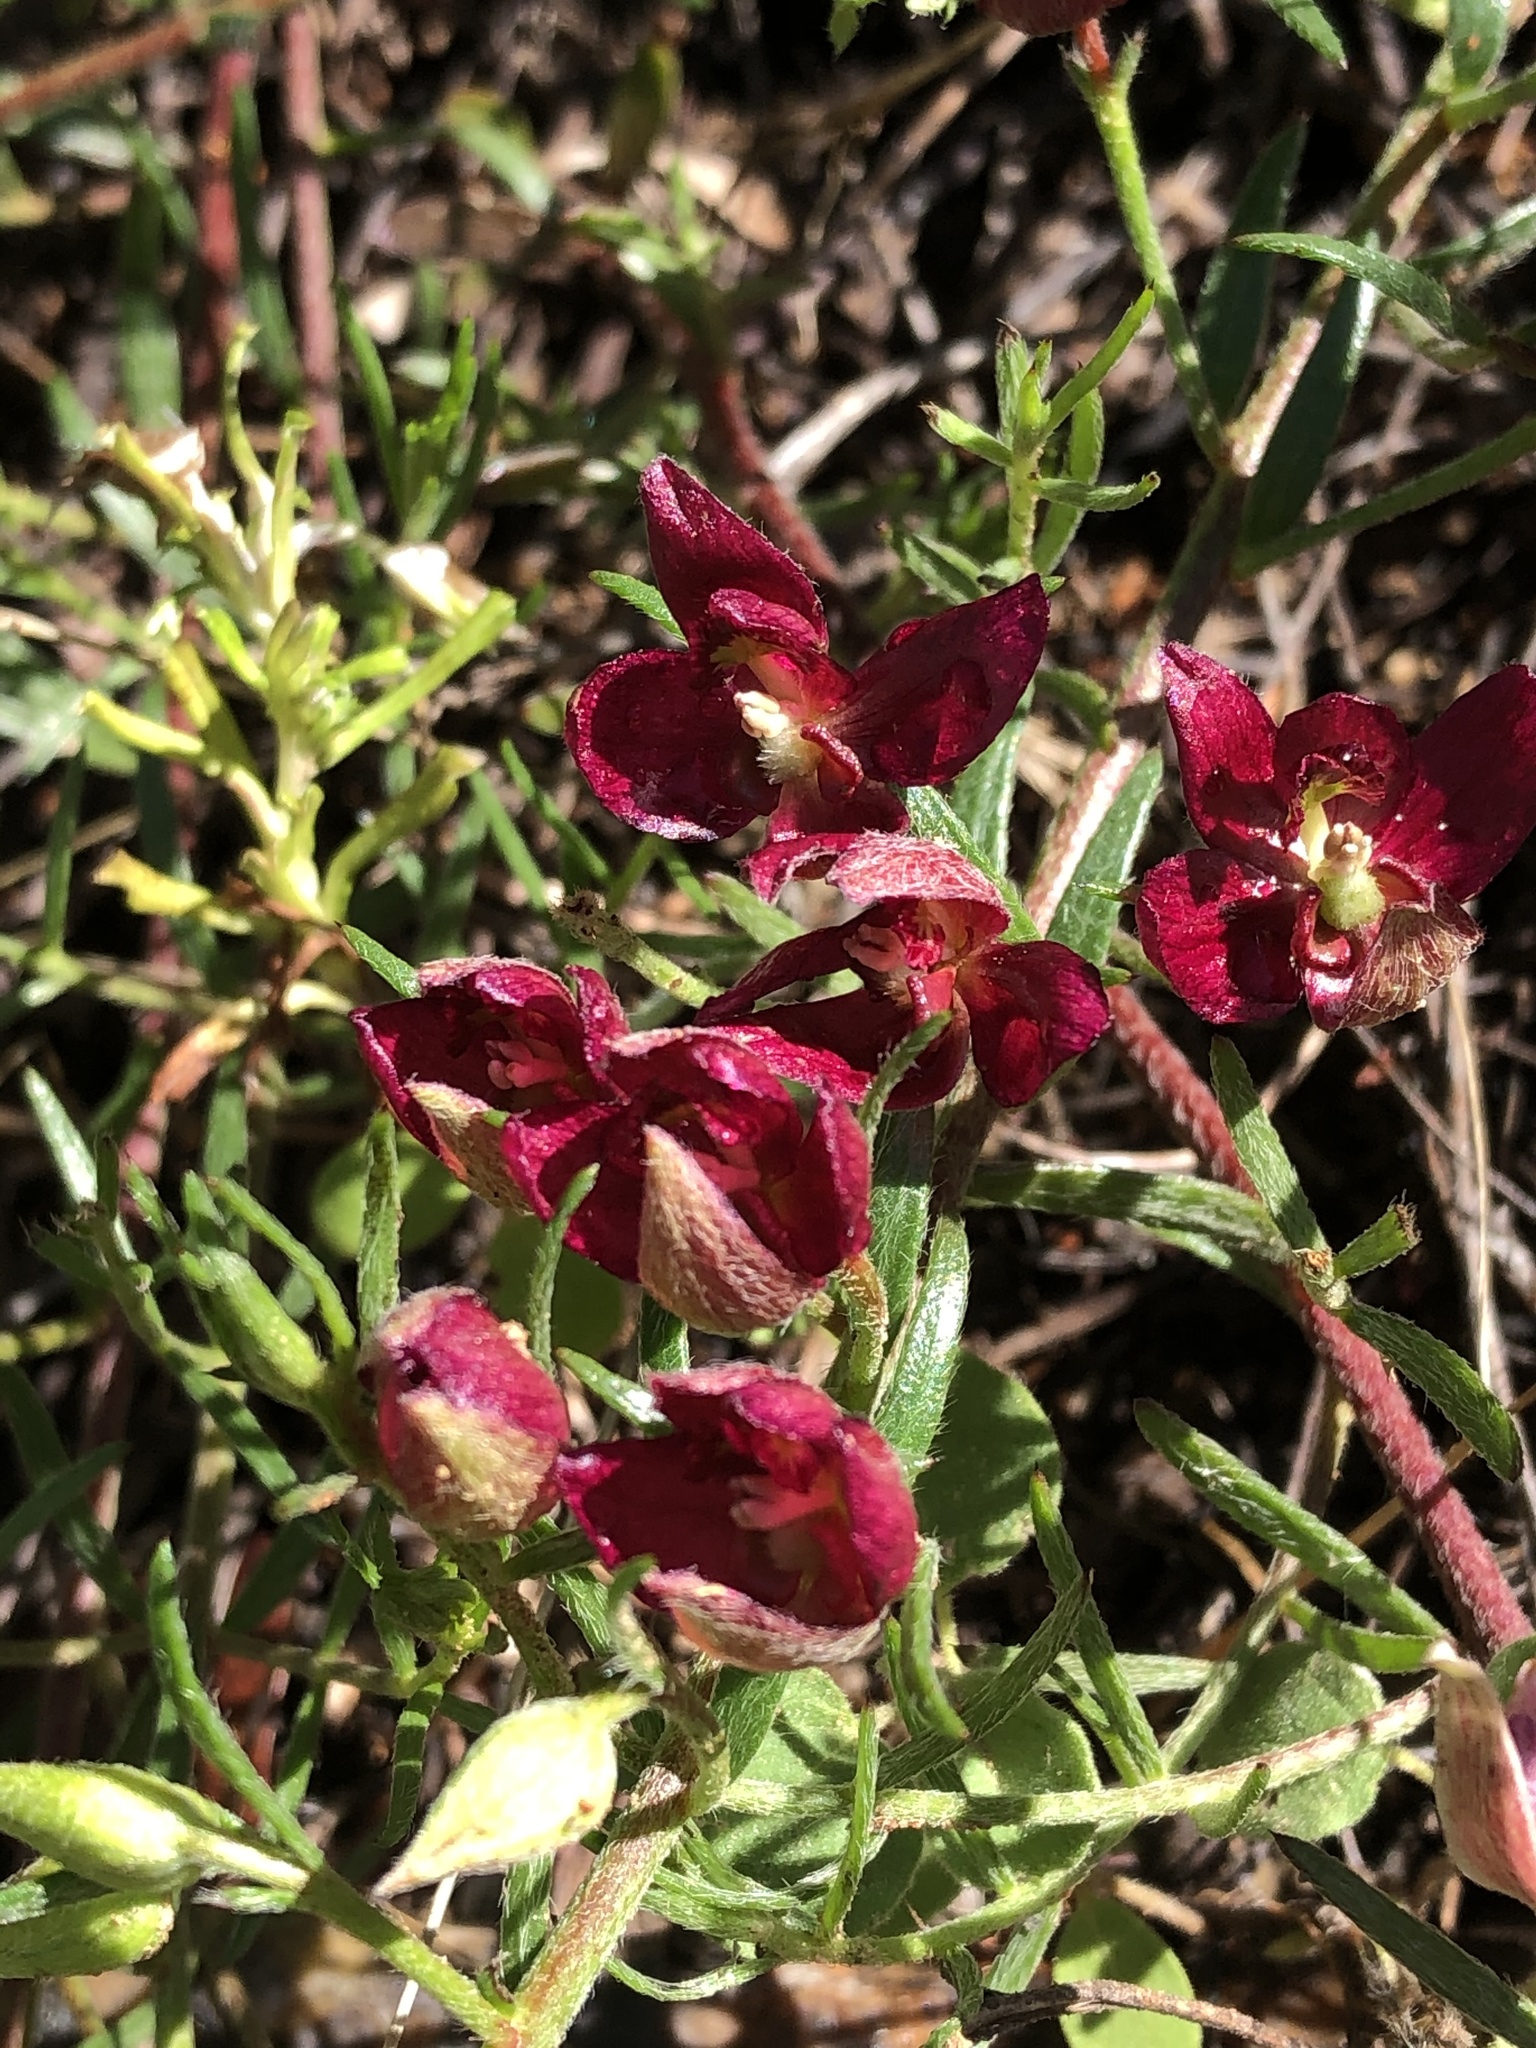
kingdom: Plantae
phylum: Tracheophyta
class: Magnoliopsida
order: Zygophyllales
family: Krameriaceae
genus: Krameria
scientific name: Krameria lanceolata
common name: Ratany
